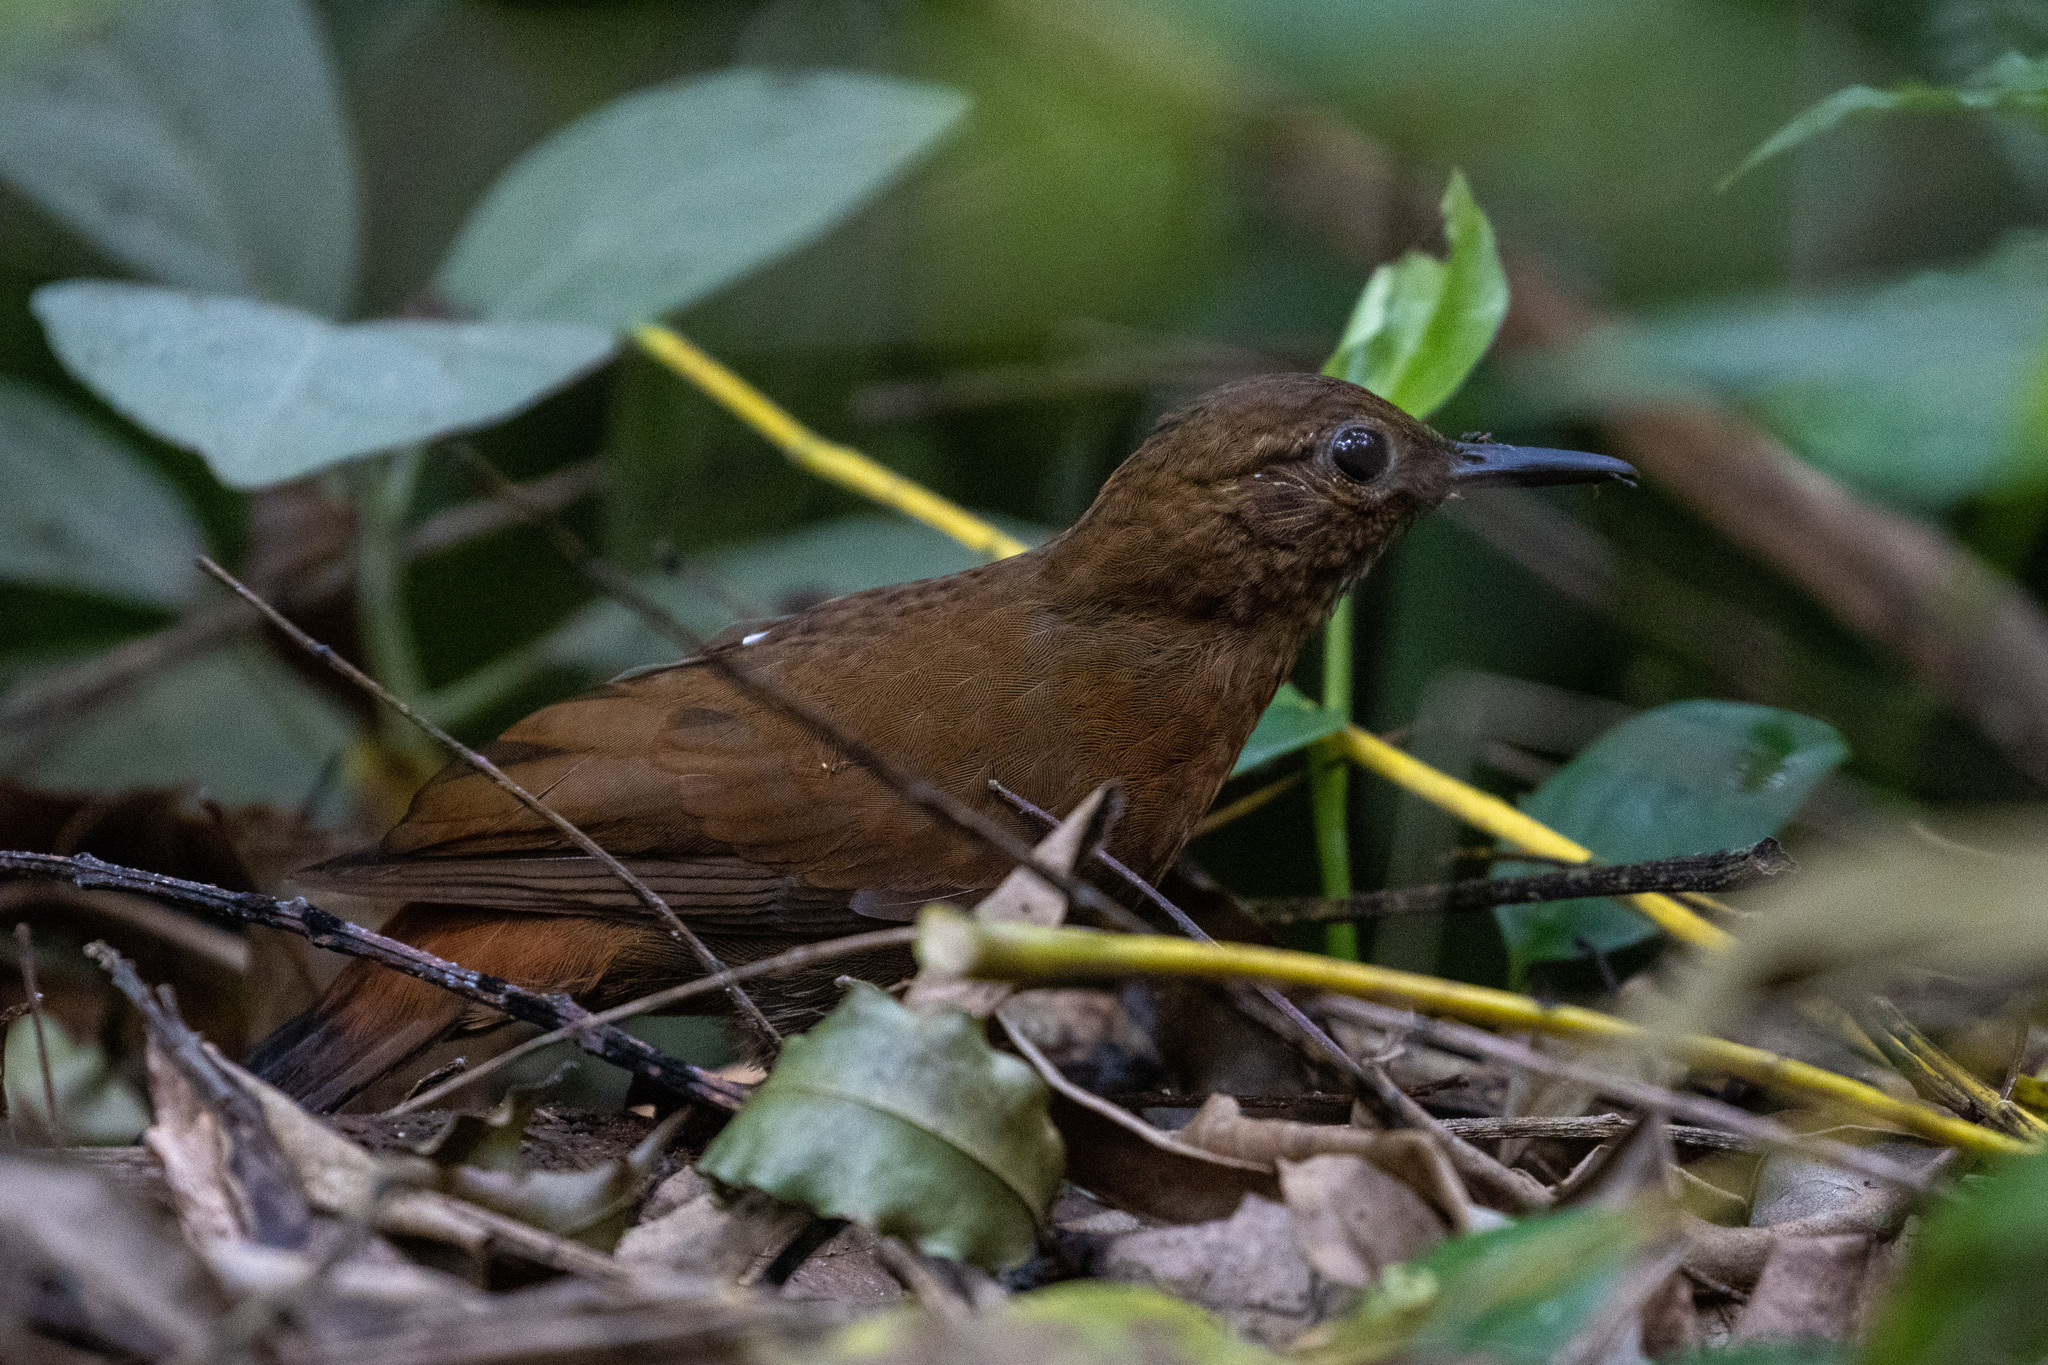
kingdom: Animalia
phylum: Chordata
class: Aves
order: Passeriformes
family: Furnariidae
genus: Sclerurus
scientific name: Sclerurus scansor
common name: Rufous-breasted leaftosser
